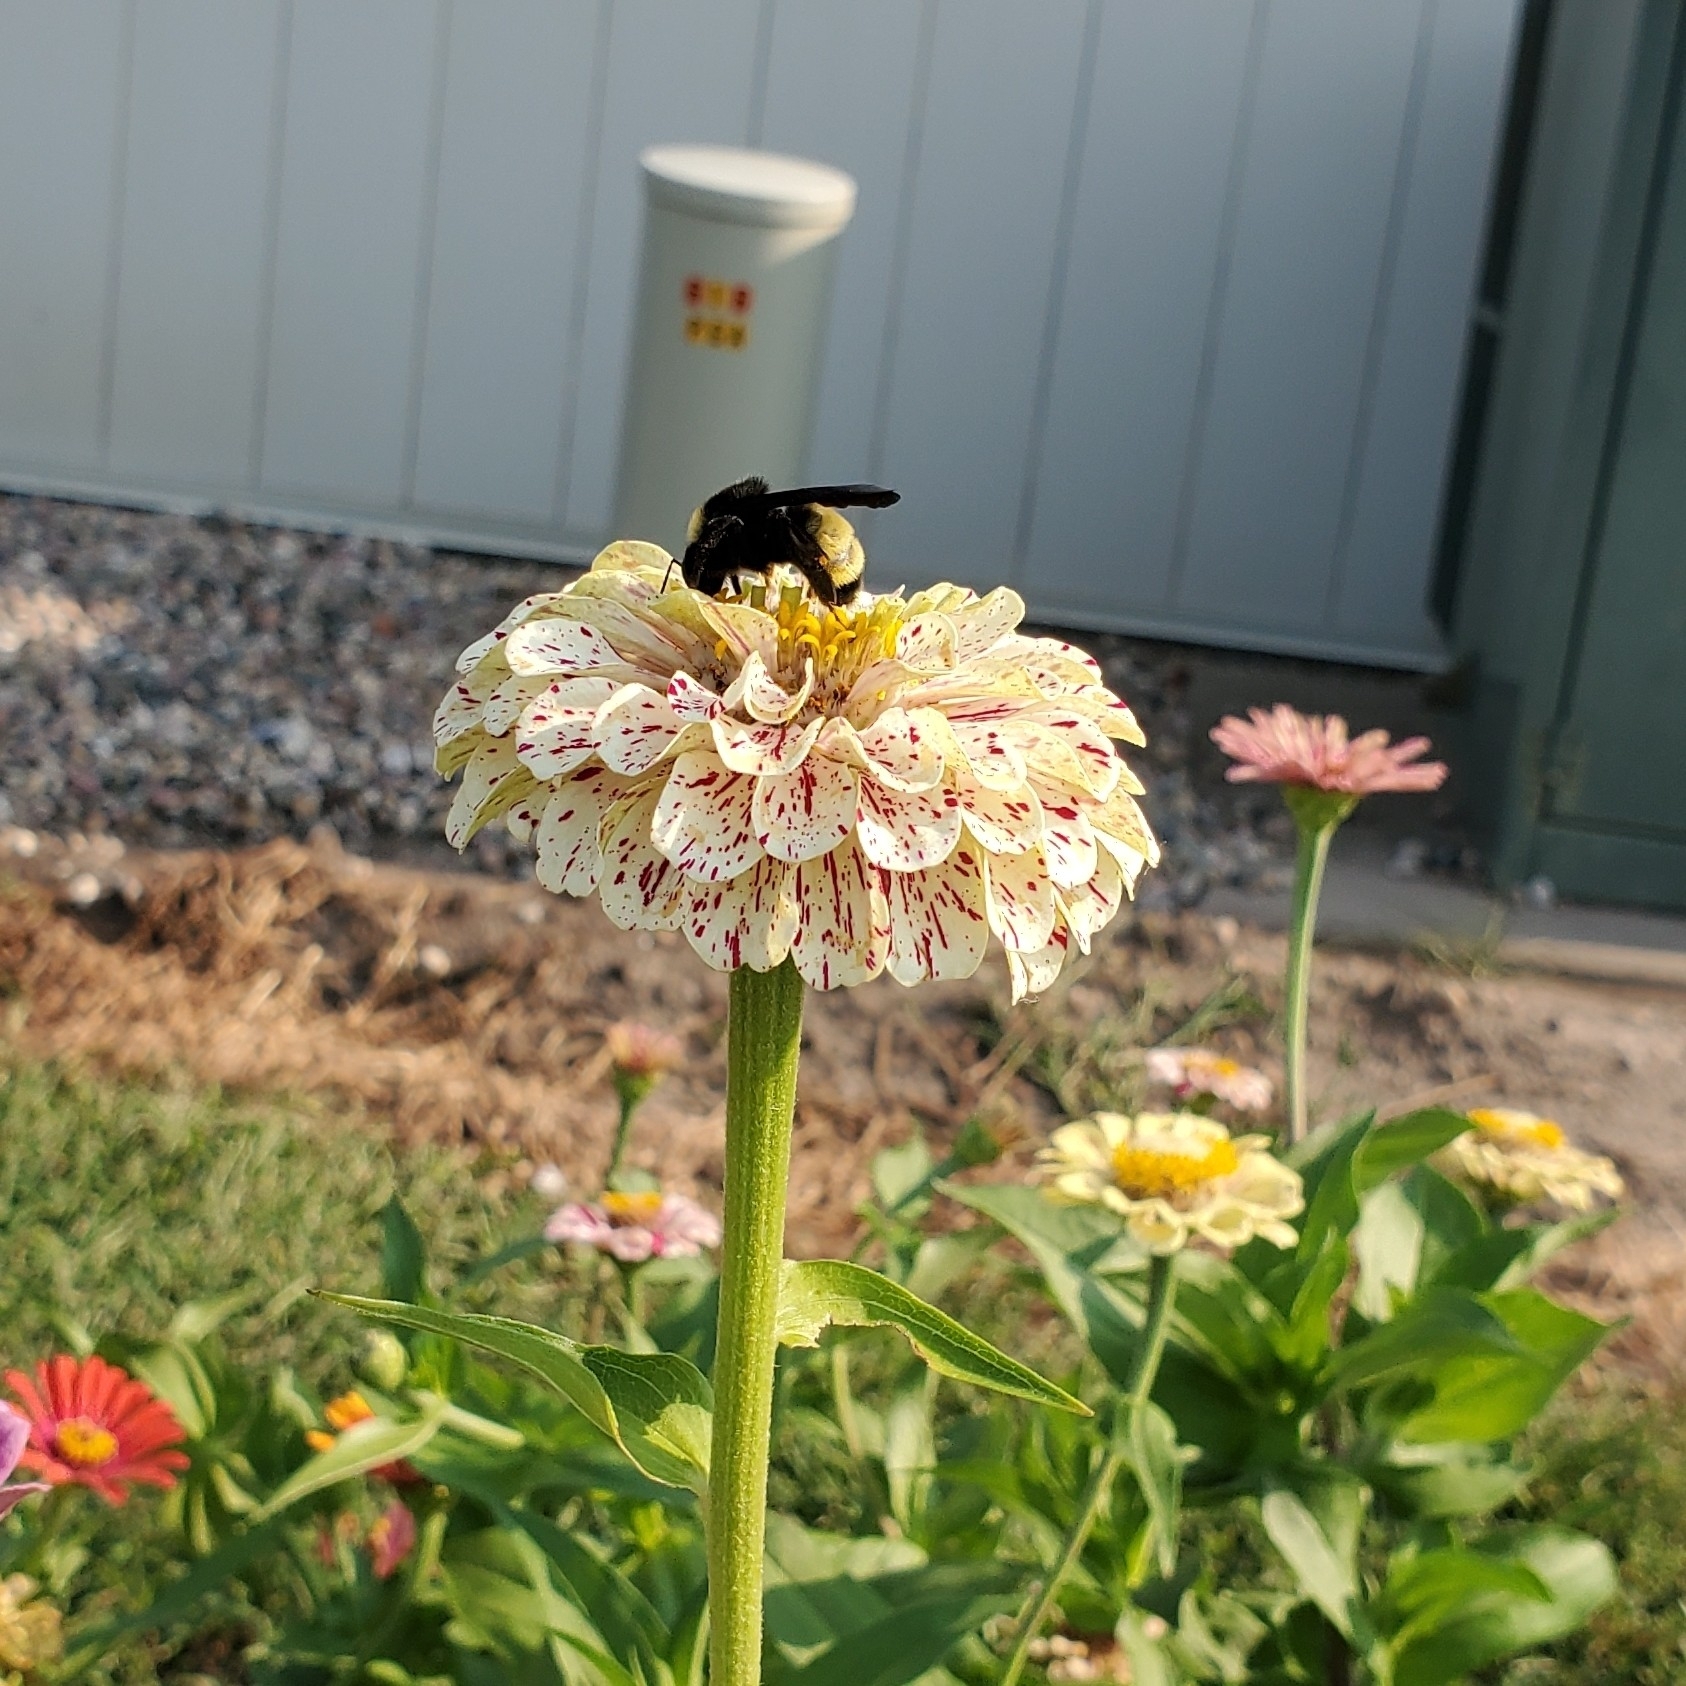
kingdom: Animalia
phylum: Arthropoda
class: Insecta
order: Hymenoptera
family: Apidae
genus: Bombus
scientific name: Bombus pensylvanicus
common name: Bumble bee
